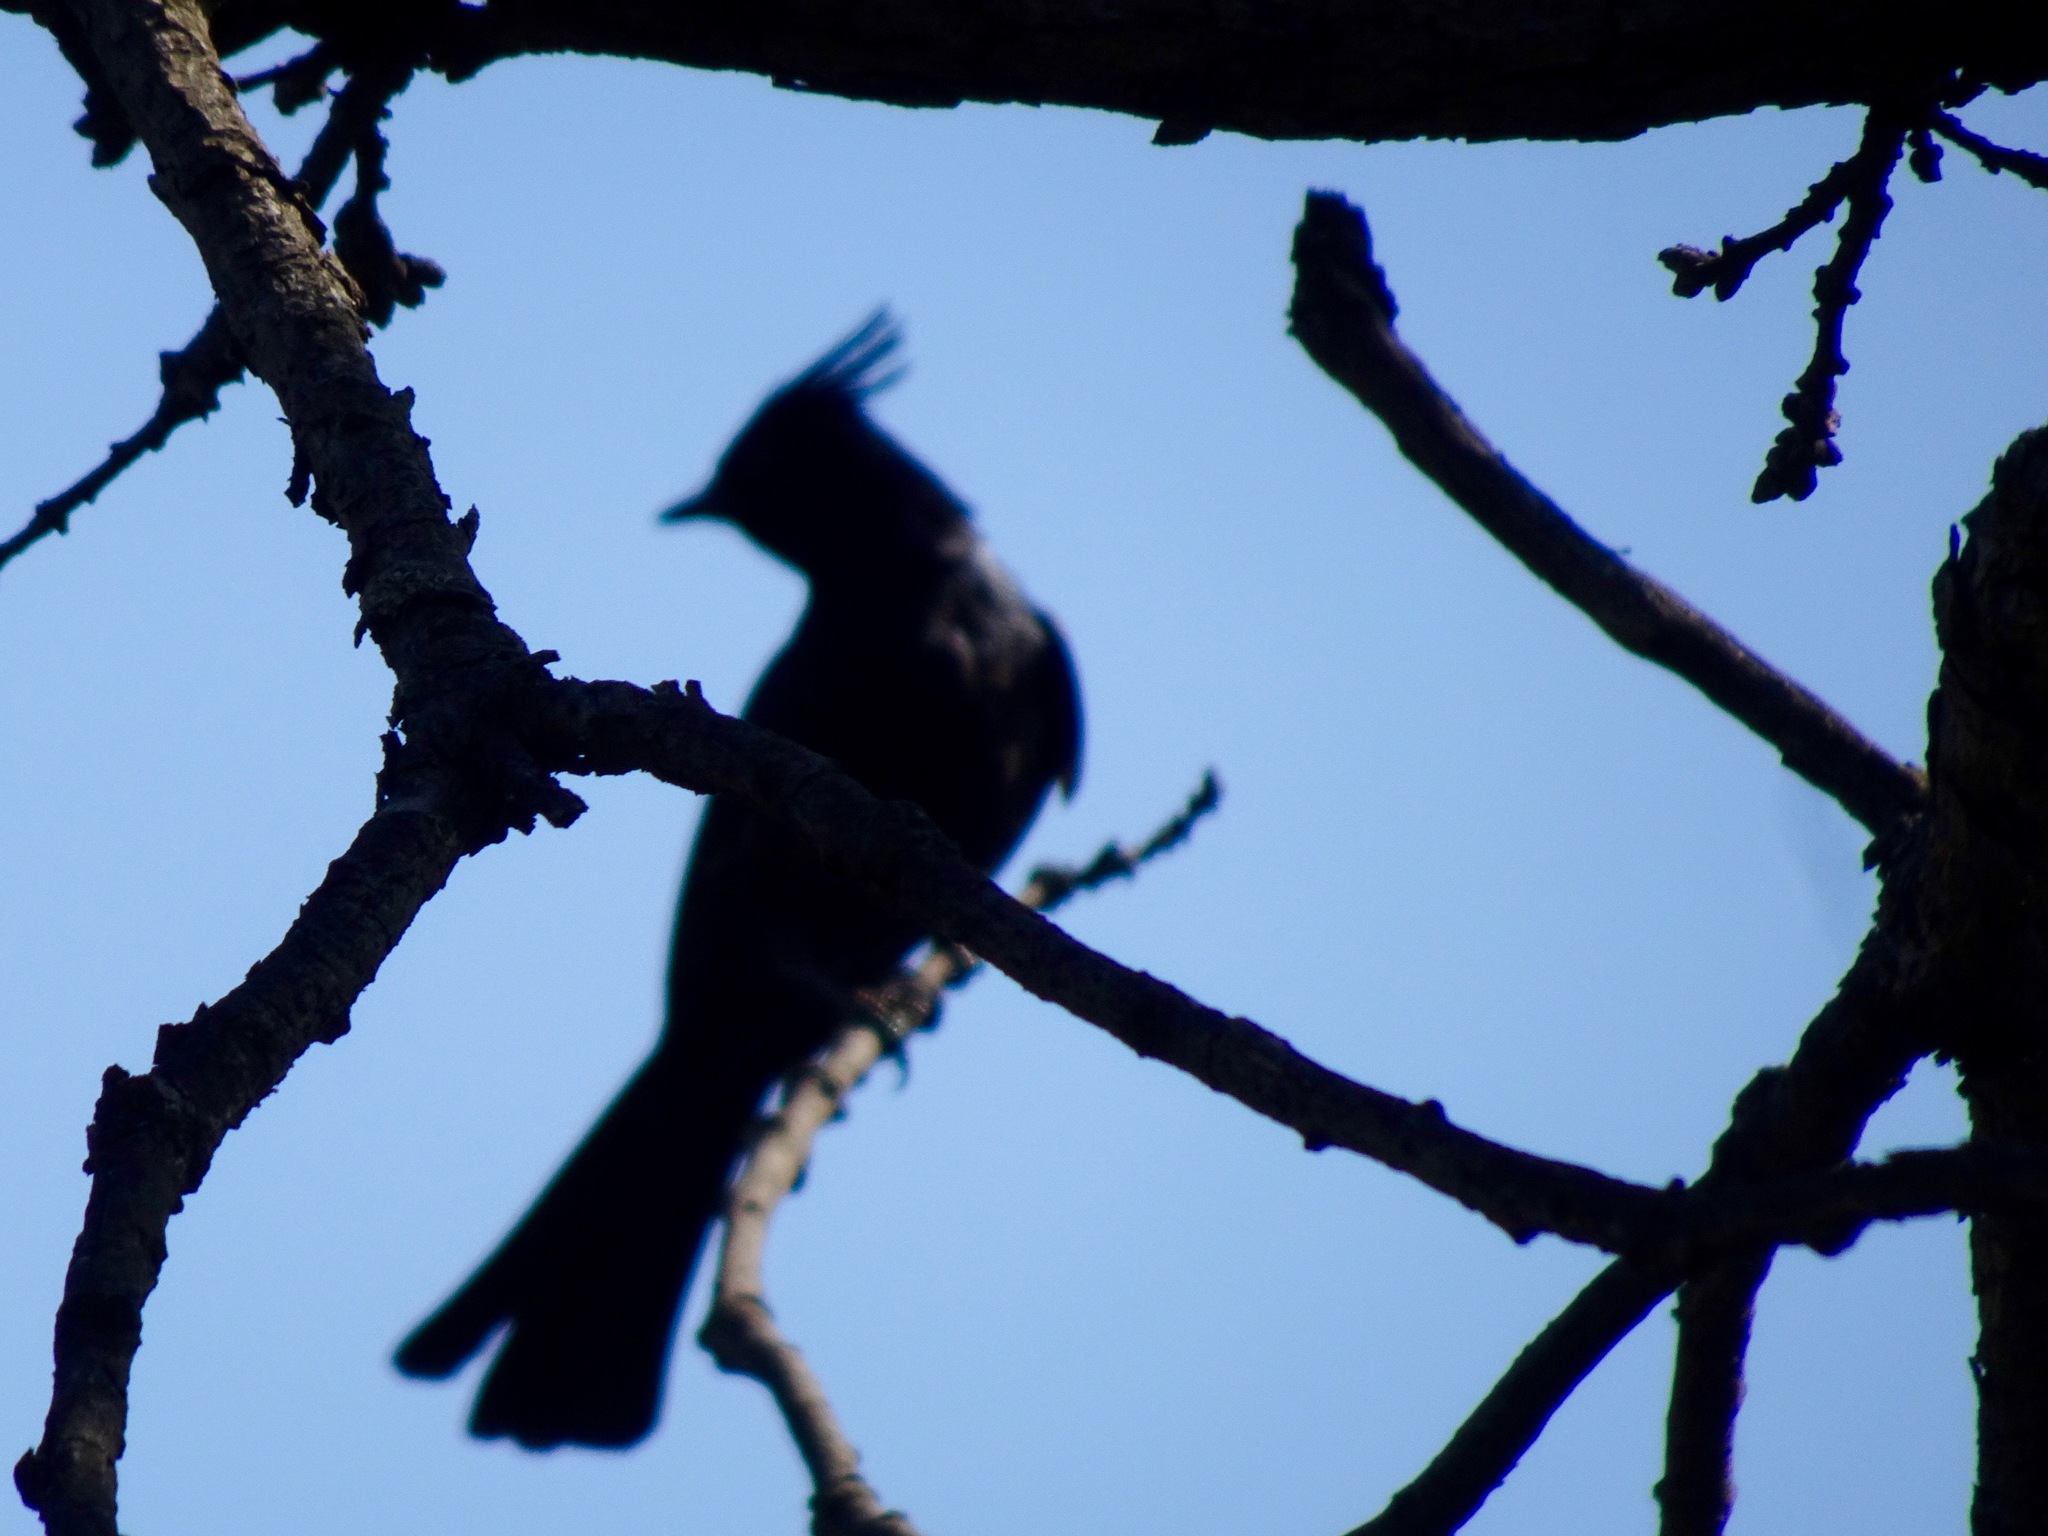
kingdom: Animalia
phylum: Chordata
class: Aves
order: Passeriformes
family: Ptilogonatidae
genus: Phainopepla
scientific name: Phainopepla nitens
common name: Phainopepla
